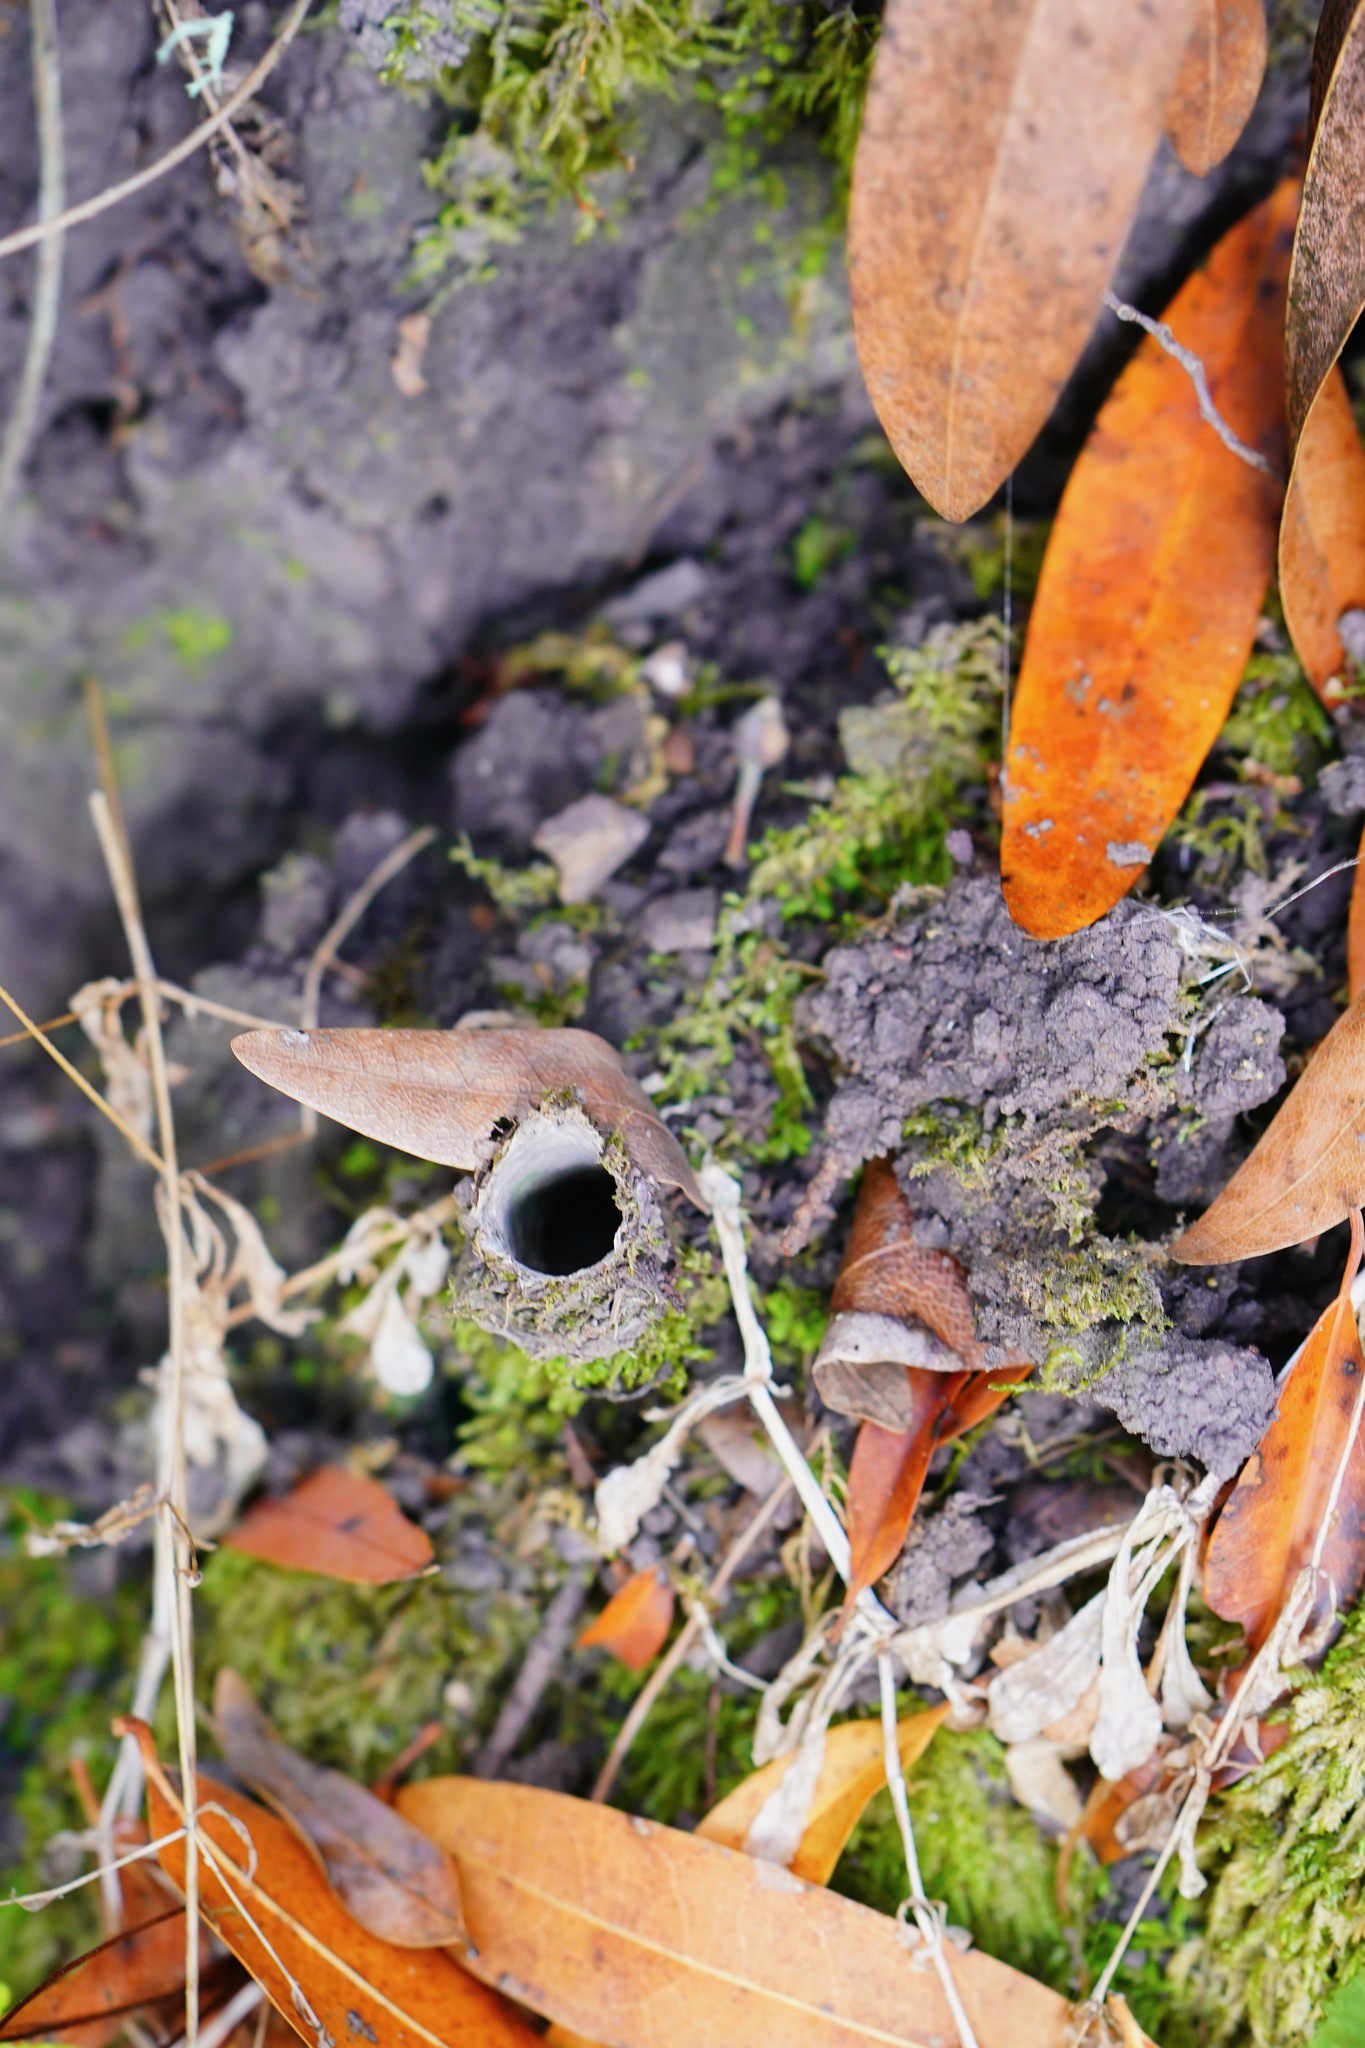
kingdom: Animalia
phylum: Arthropoda
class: Arachnida
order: Araneae
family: Antrodiaetidae
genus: Atypoides
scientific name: Atypoides riversi
